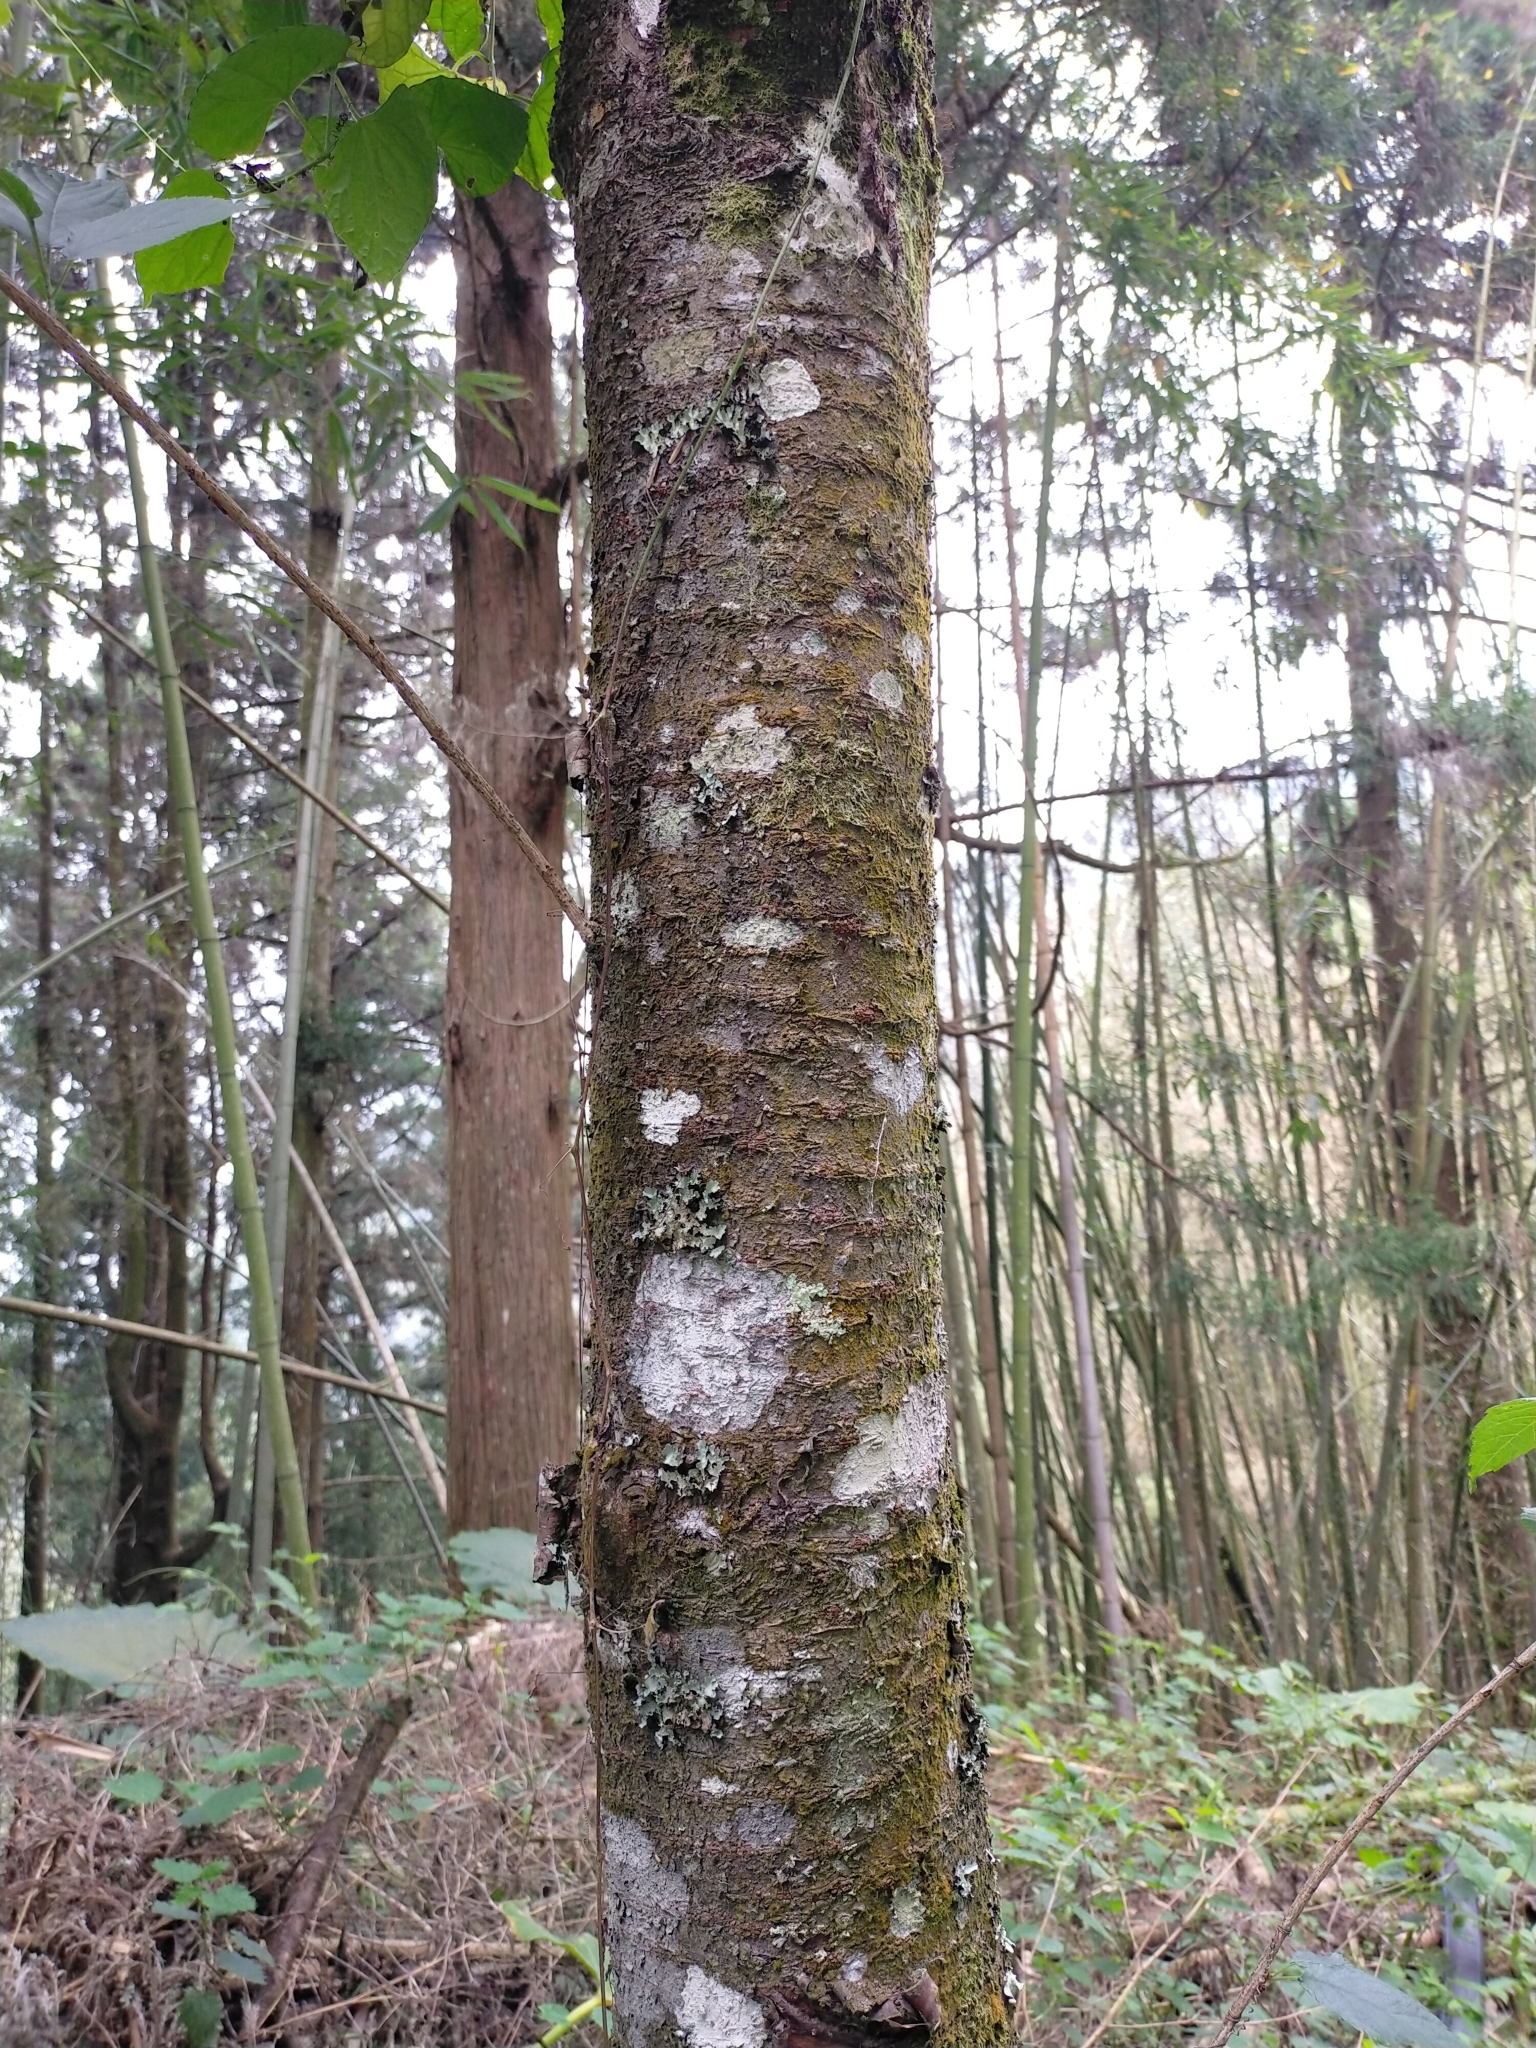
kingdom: Plantae
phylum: Tracheophyta
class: Magnoliopsida
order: Rosales
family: Rosaceae
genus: Prunus
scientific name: Prunus campanulata
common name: Taiwan flowering cherry
